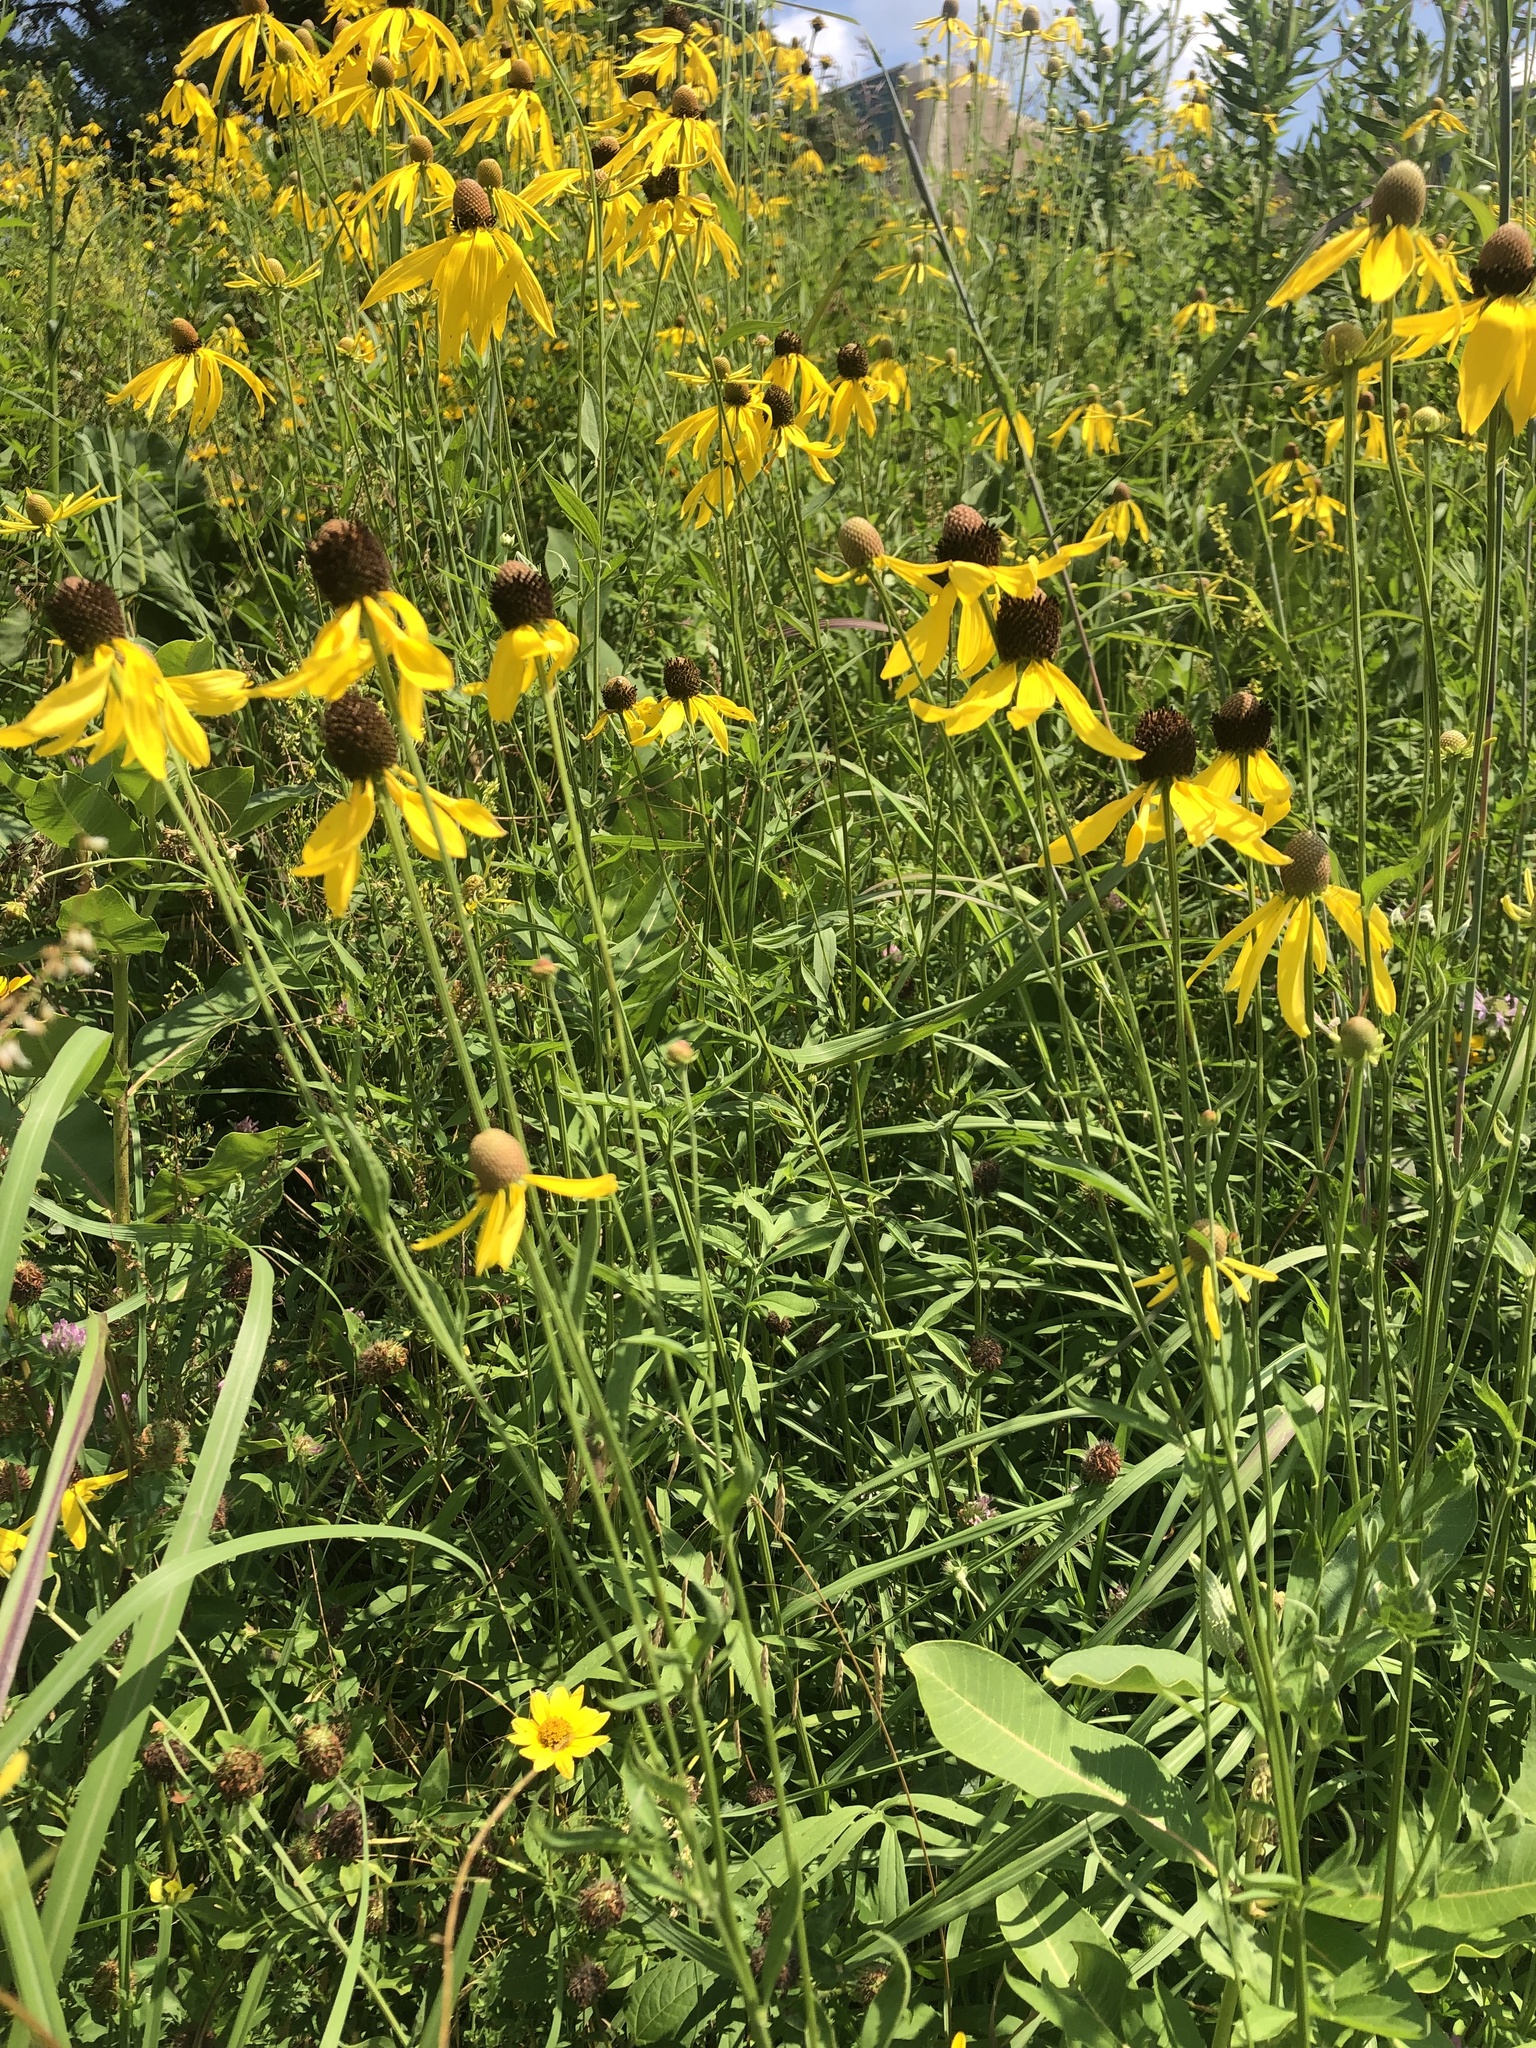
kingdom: Plantae
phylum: Tracheophyta
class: Magnoliopsida
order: Asterales
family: Asteraceae
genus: Ratibida
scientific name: Ratibida pinnata
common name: Drooping prairie-coneflower
